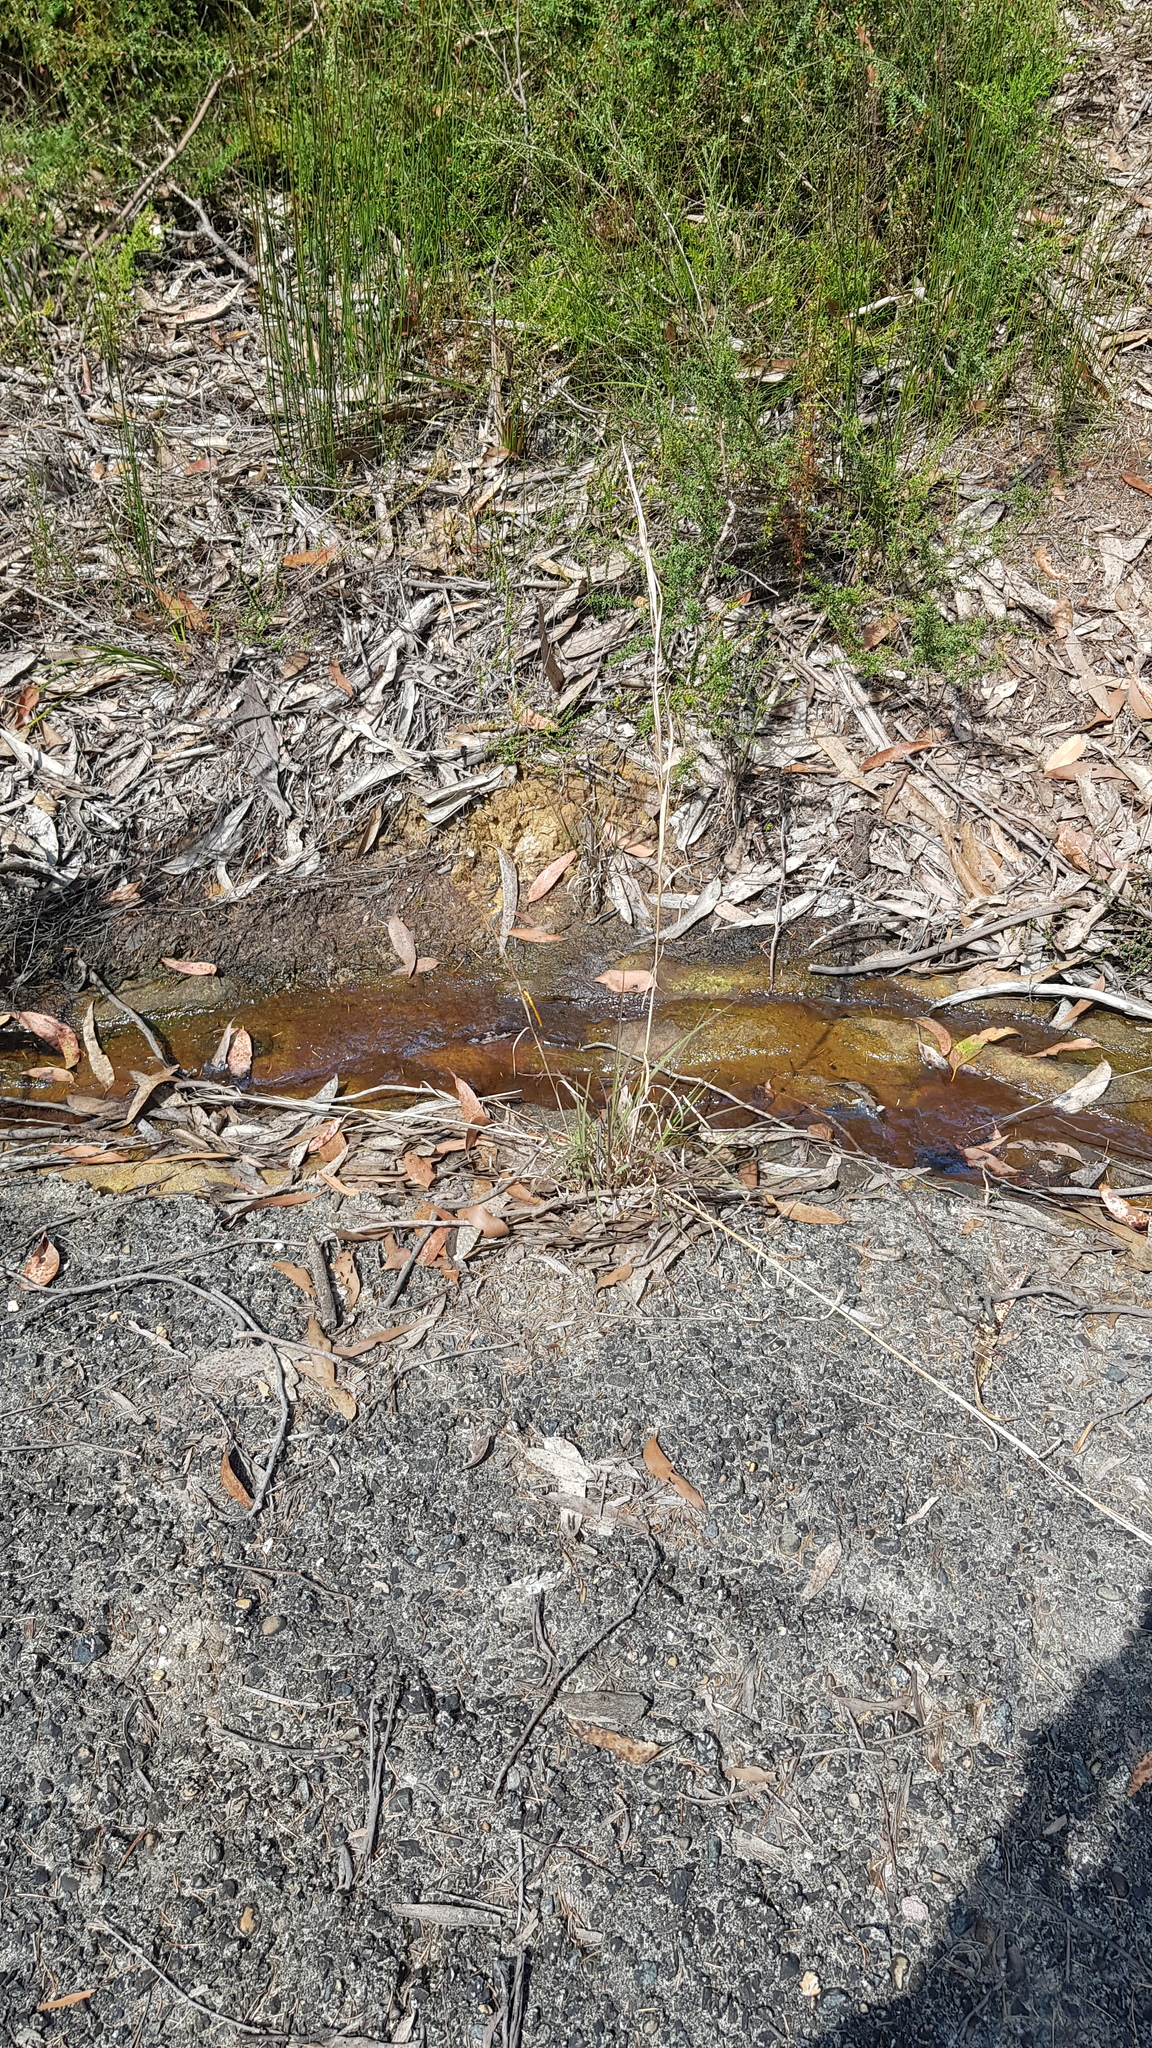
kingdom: Animalia
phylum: Arthropoda
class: Insecta
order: Odonata
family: Libellulidae
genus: Orthetrum
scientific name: Orthetrum villosovittatum
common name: Firery skimmer
